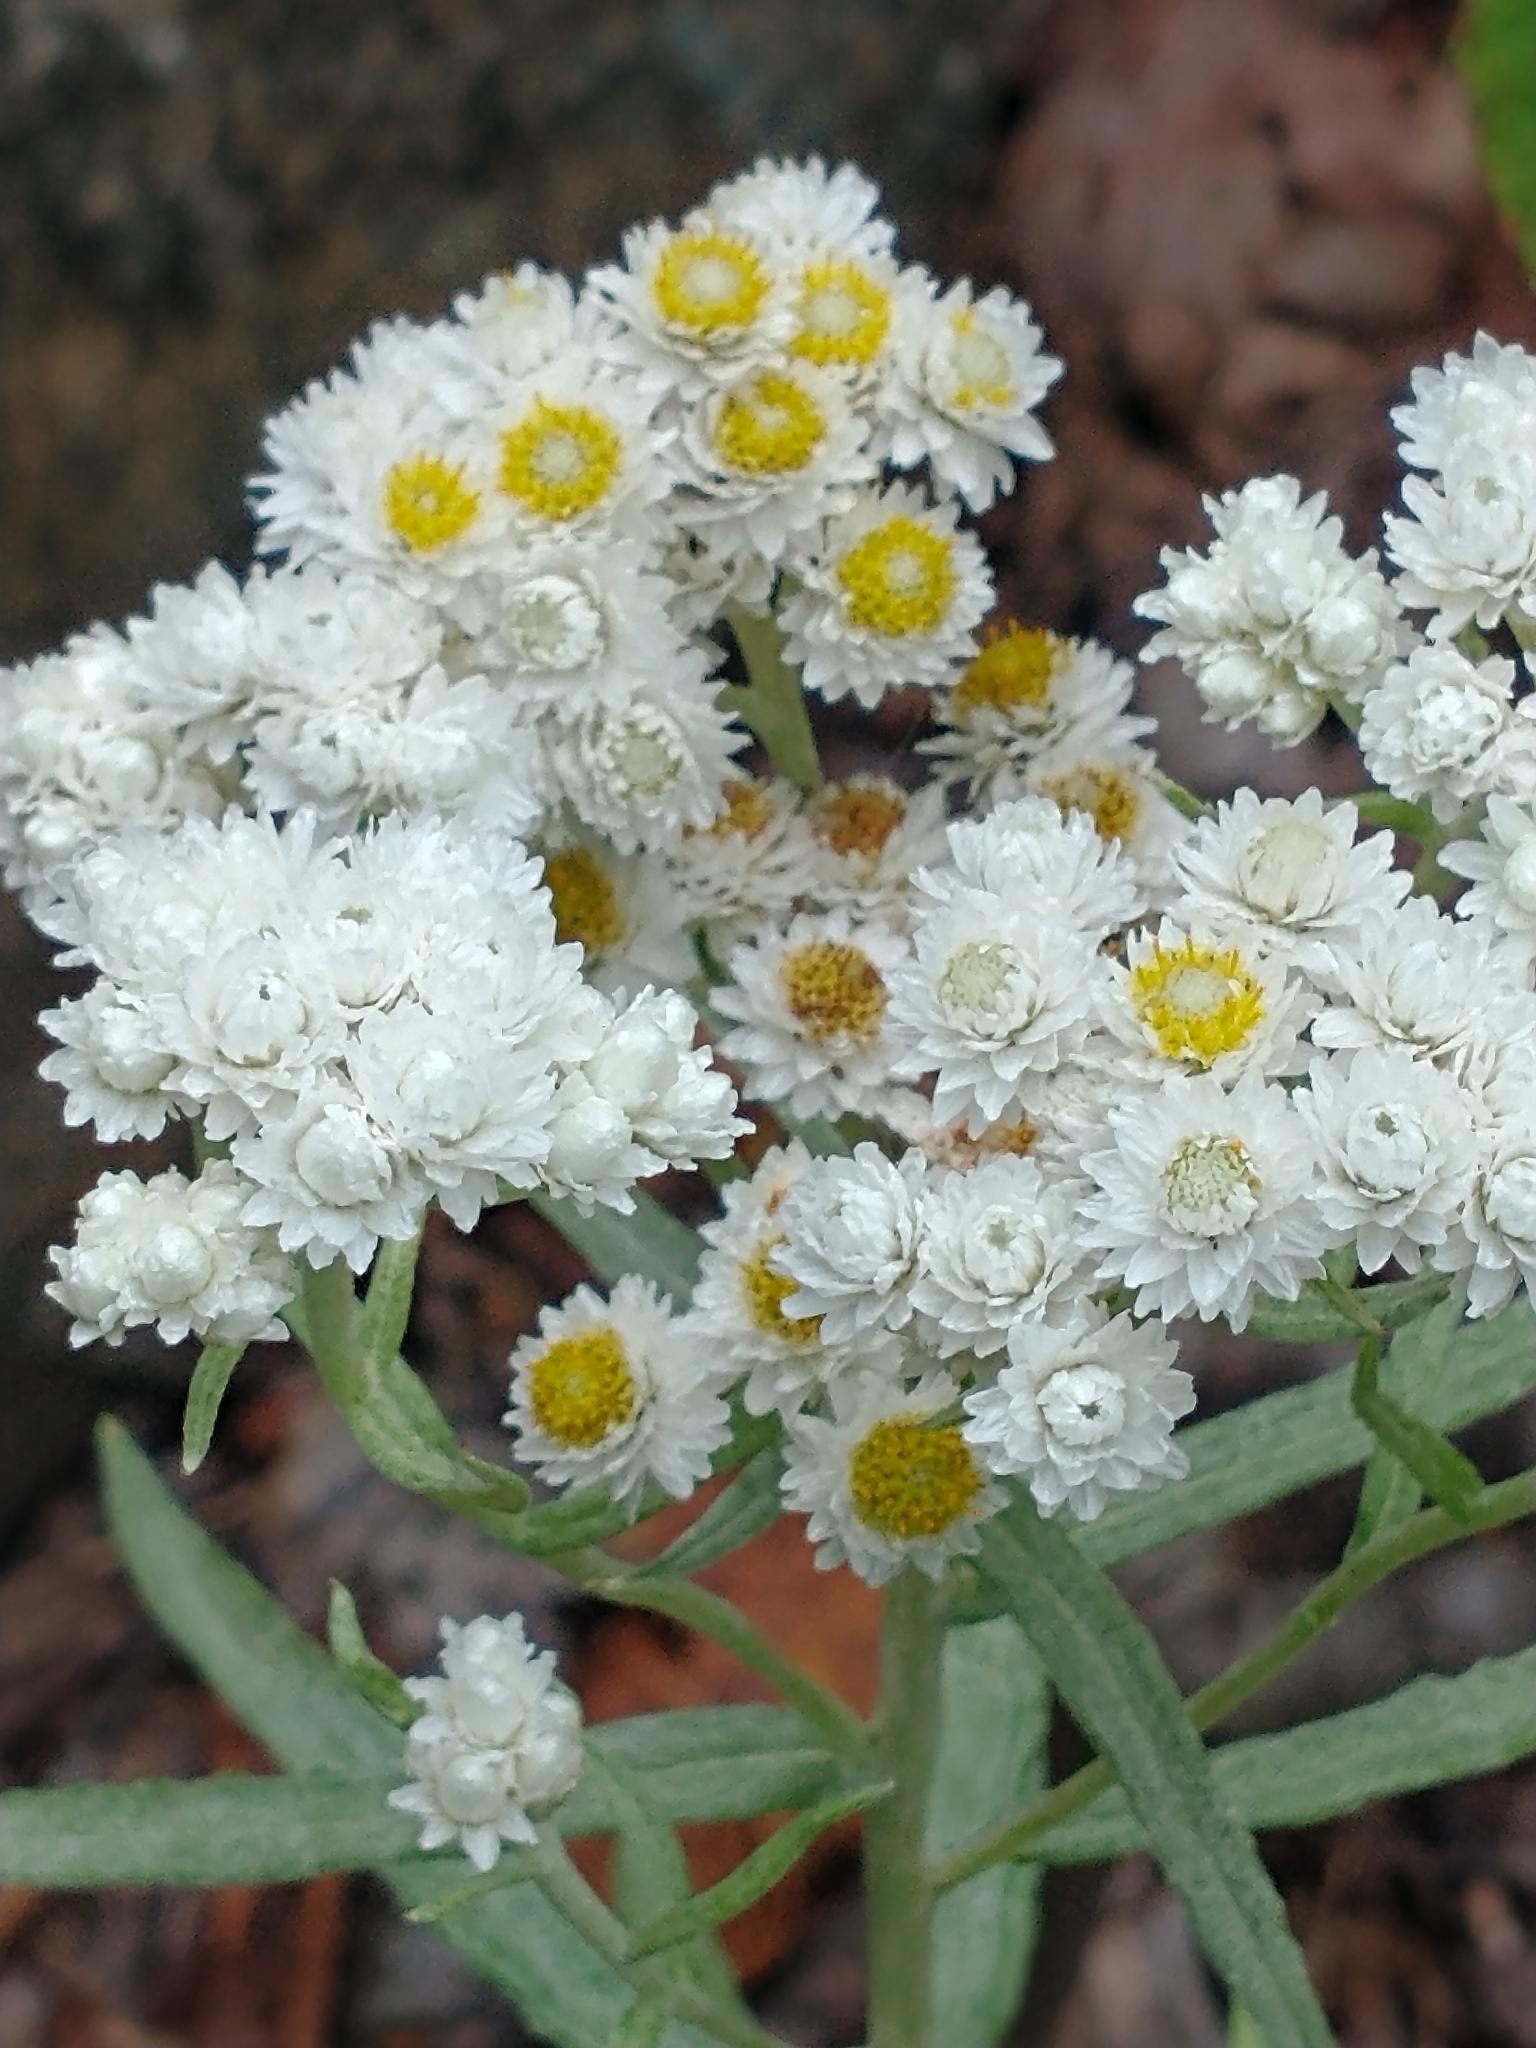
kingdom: Plantae
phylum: Tracheophyta
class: Magnoliopsida
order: Asterales
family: Asteraceae
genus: Anaphalis
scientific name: Anaphalis margaritacea
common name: Pearly everlasting
